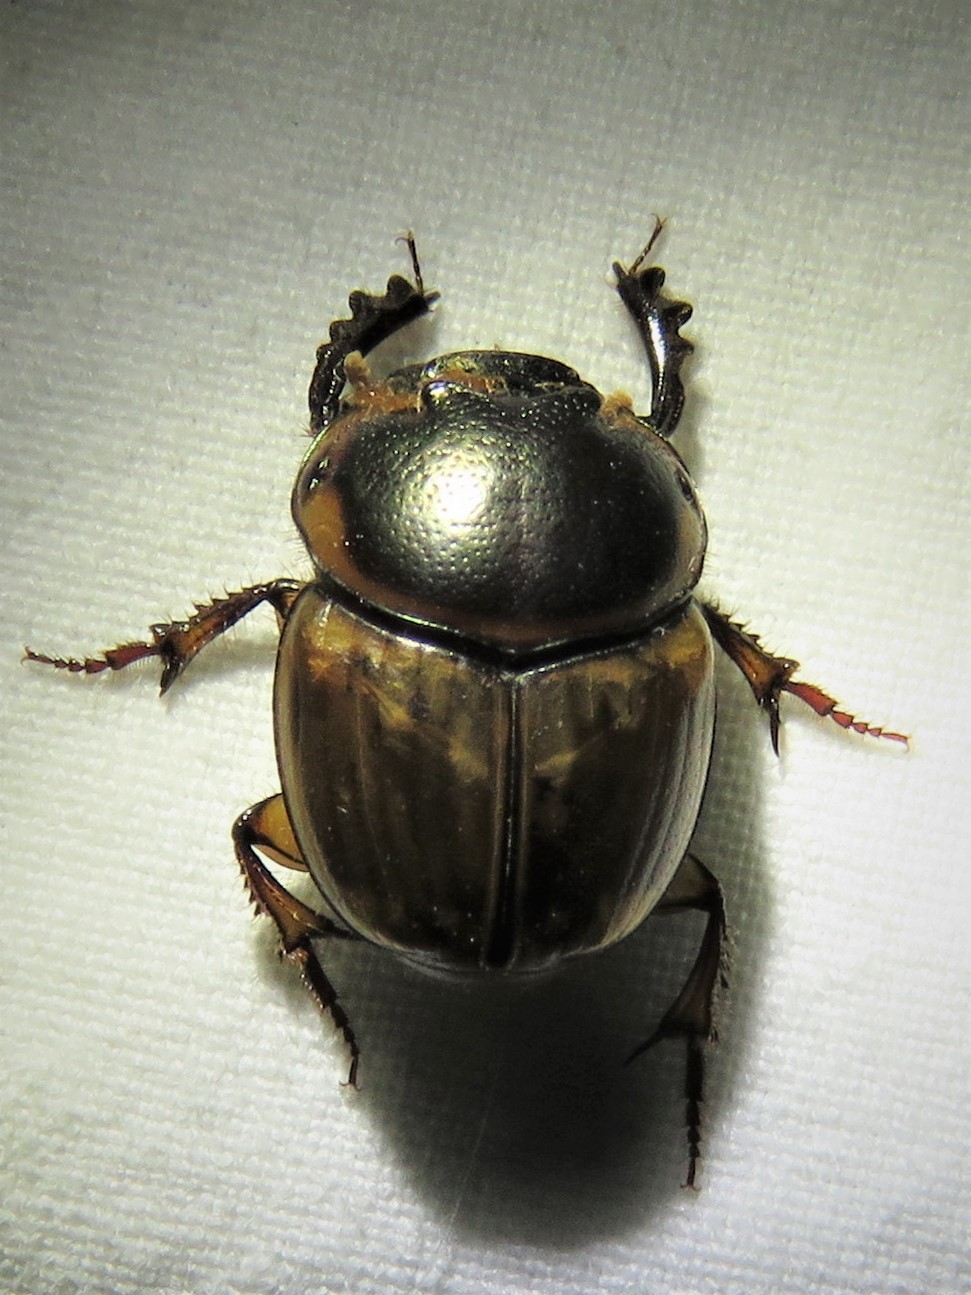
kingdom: Animalia
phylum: Arthropoda
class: Insecta
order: Coleoptera
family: Scarabaeidae
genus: Digitonthophagus
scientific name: Digitonthophagus gazella
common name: Brown dung beetle
